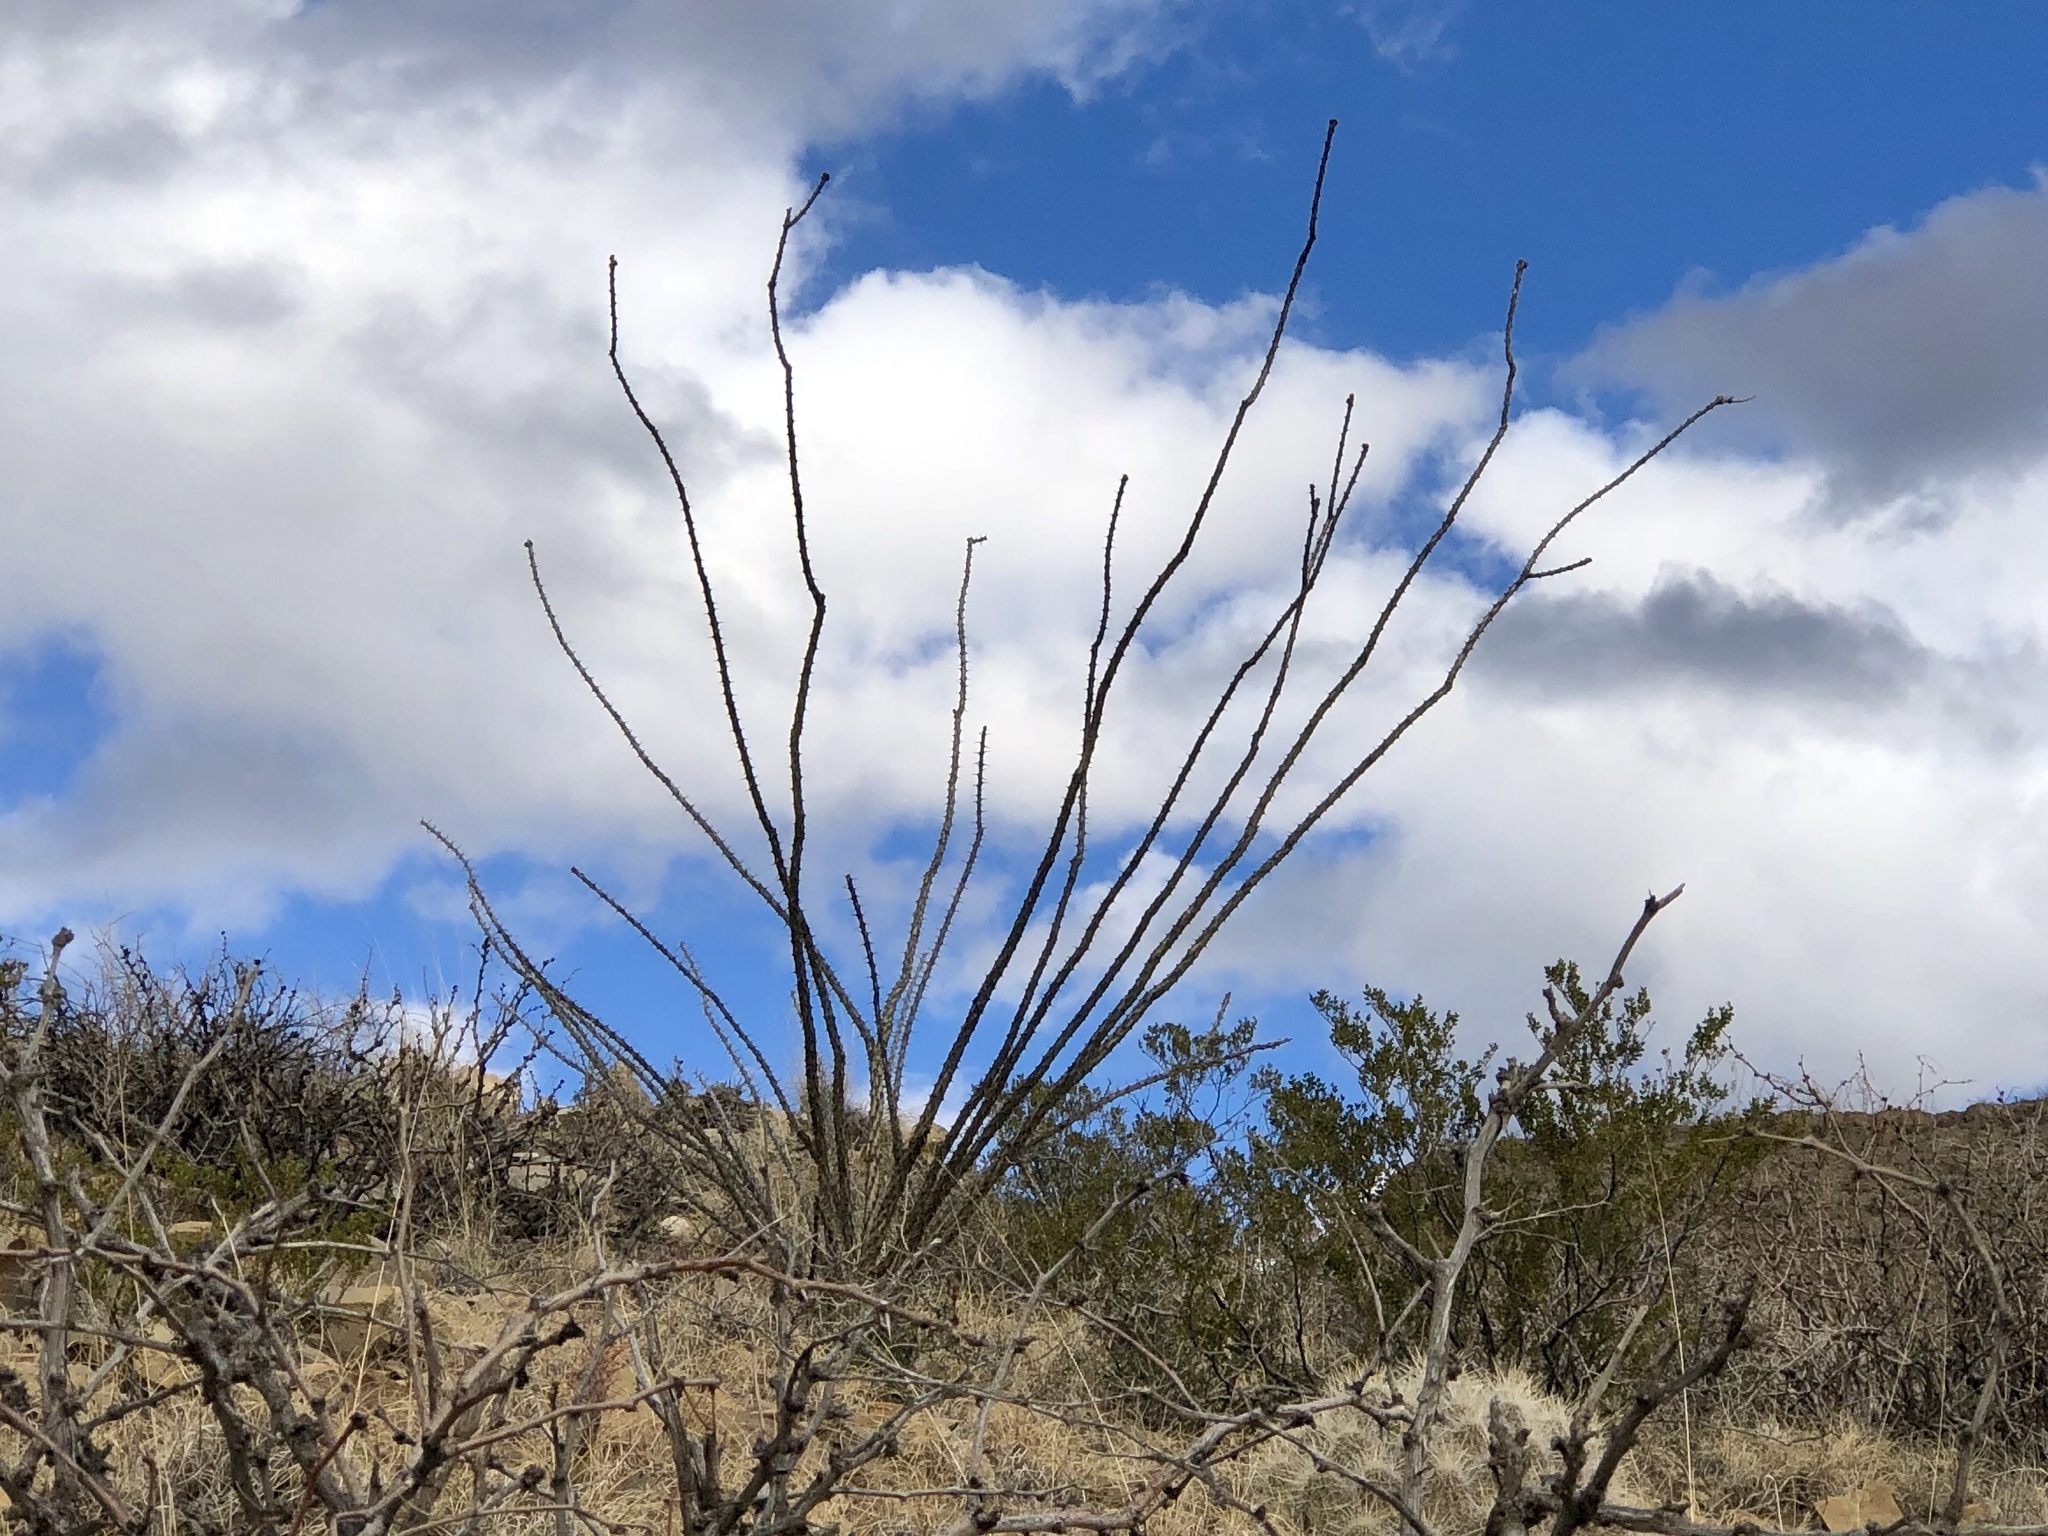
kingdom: Plantae
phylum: Tracheophyta
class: Magnoliopsida
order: Ericales
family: Fouquieriaceae
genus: Fouquieria
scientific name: Fouquieria splendens
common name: Vine-cactus
